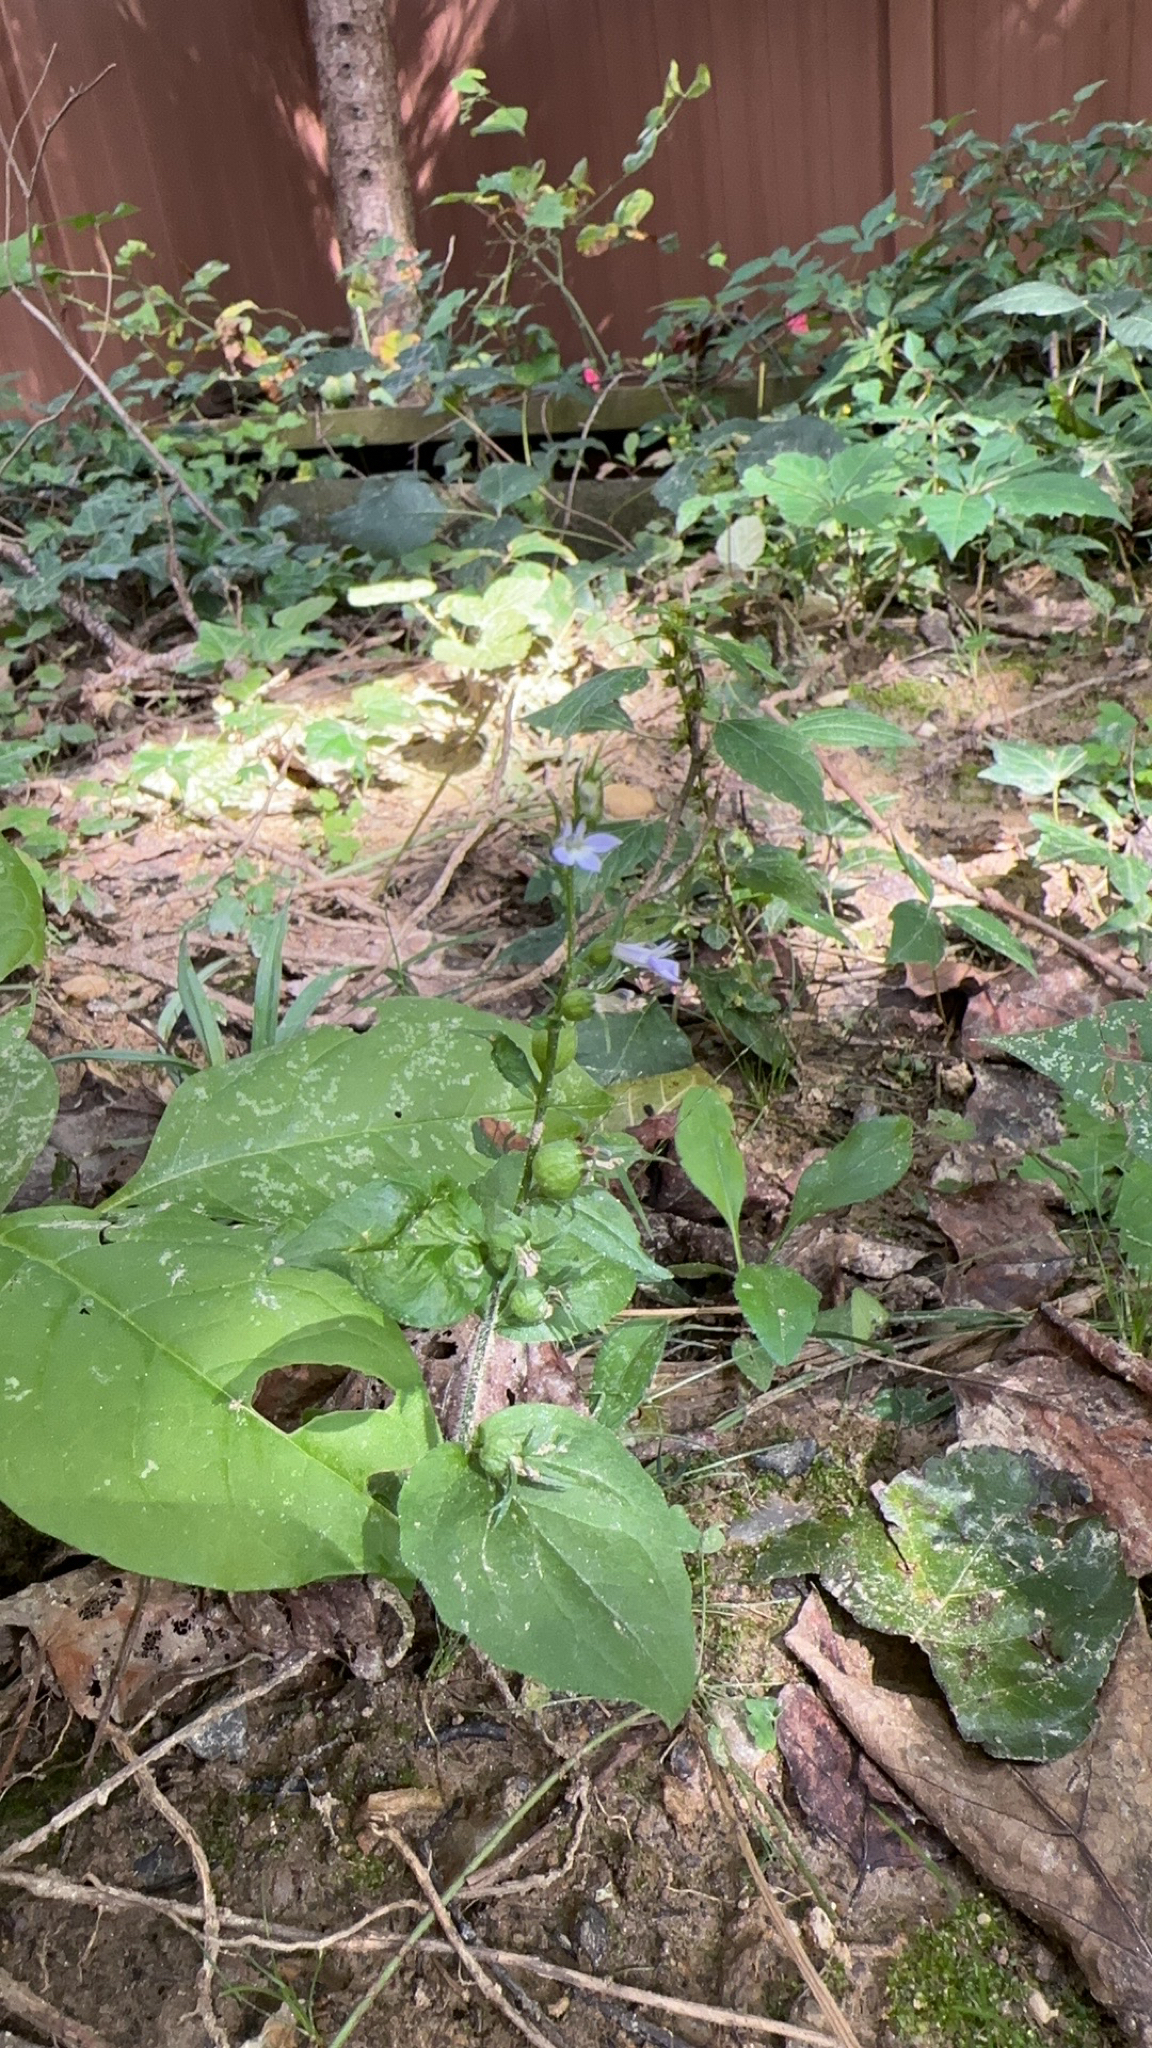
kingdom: Plantae
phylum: Tracheophyta
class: Magnoliopsida
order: Asterales
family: Campanulaceae
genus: Lobelia
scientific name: Lobelia inflata
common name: Indian tobacco
